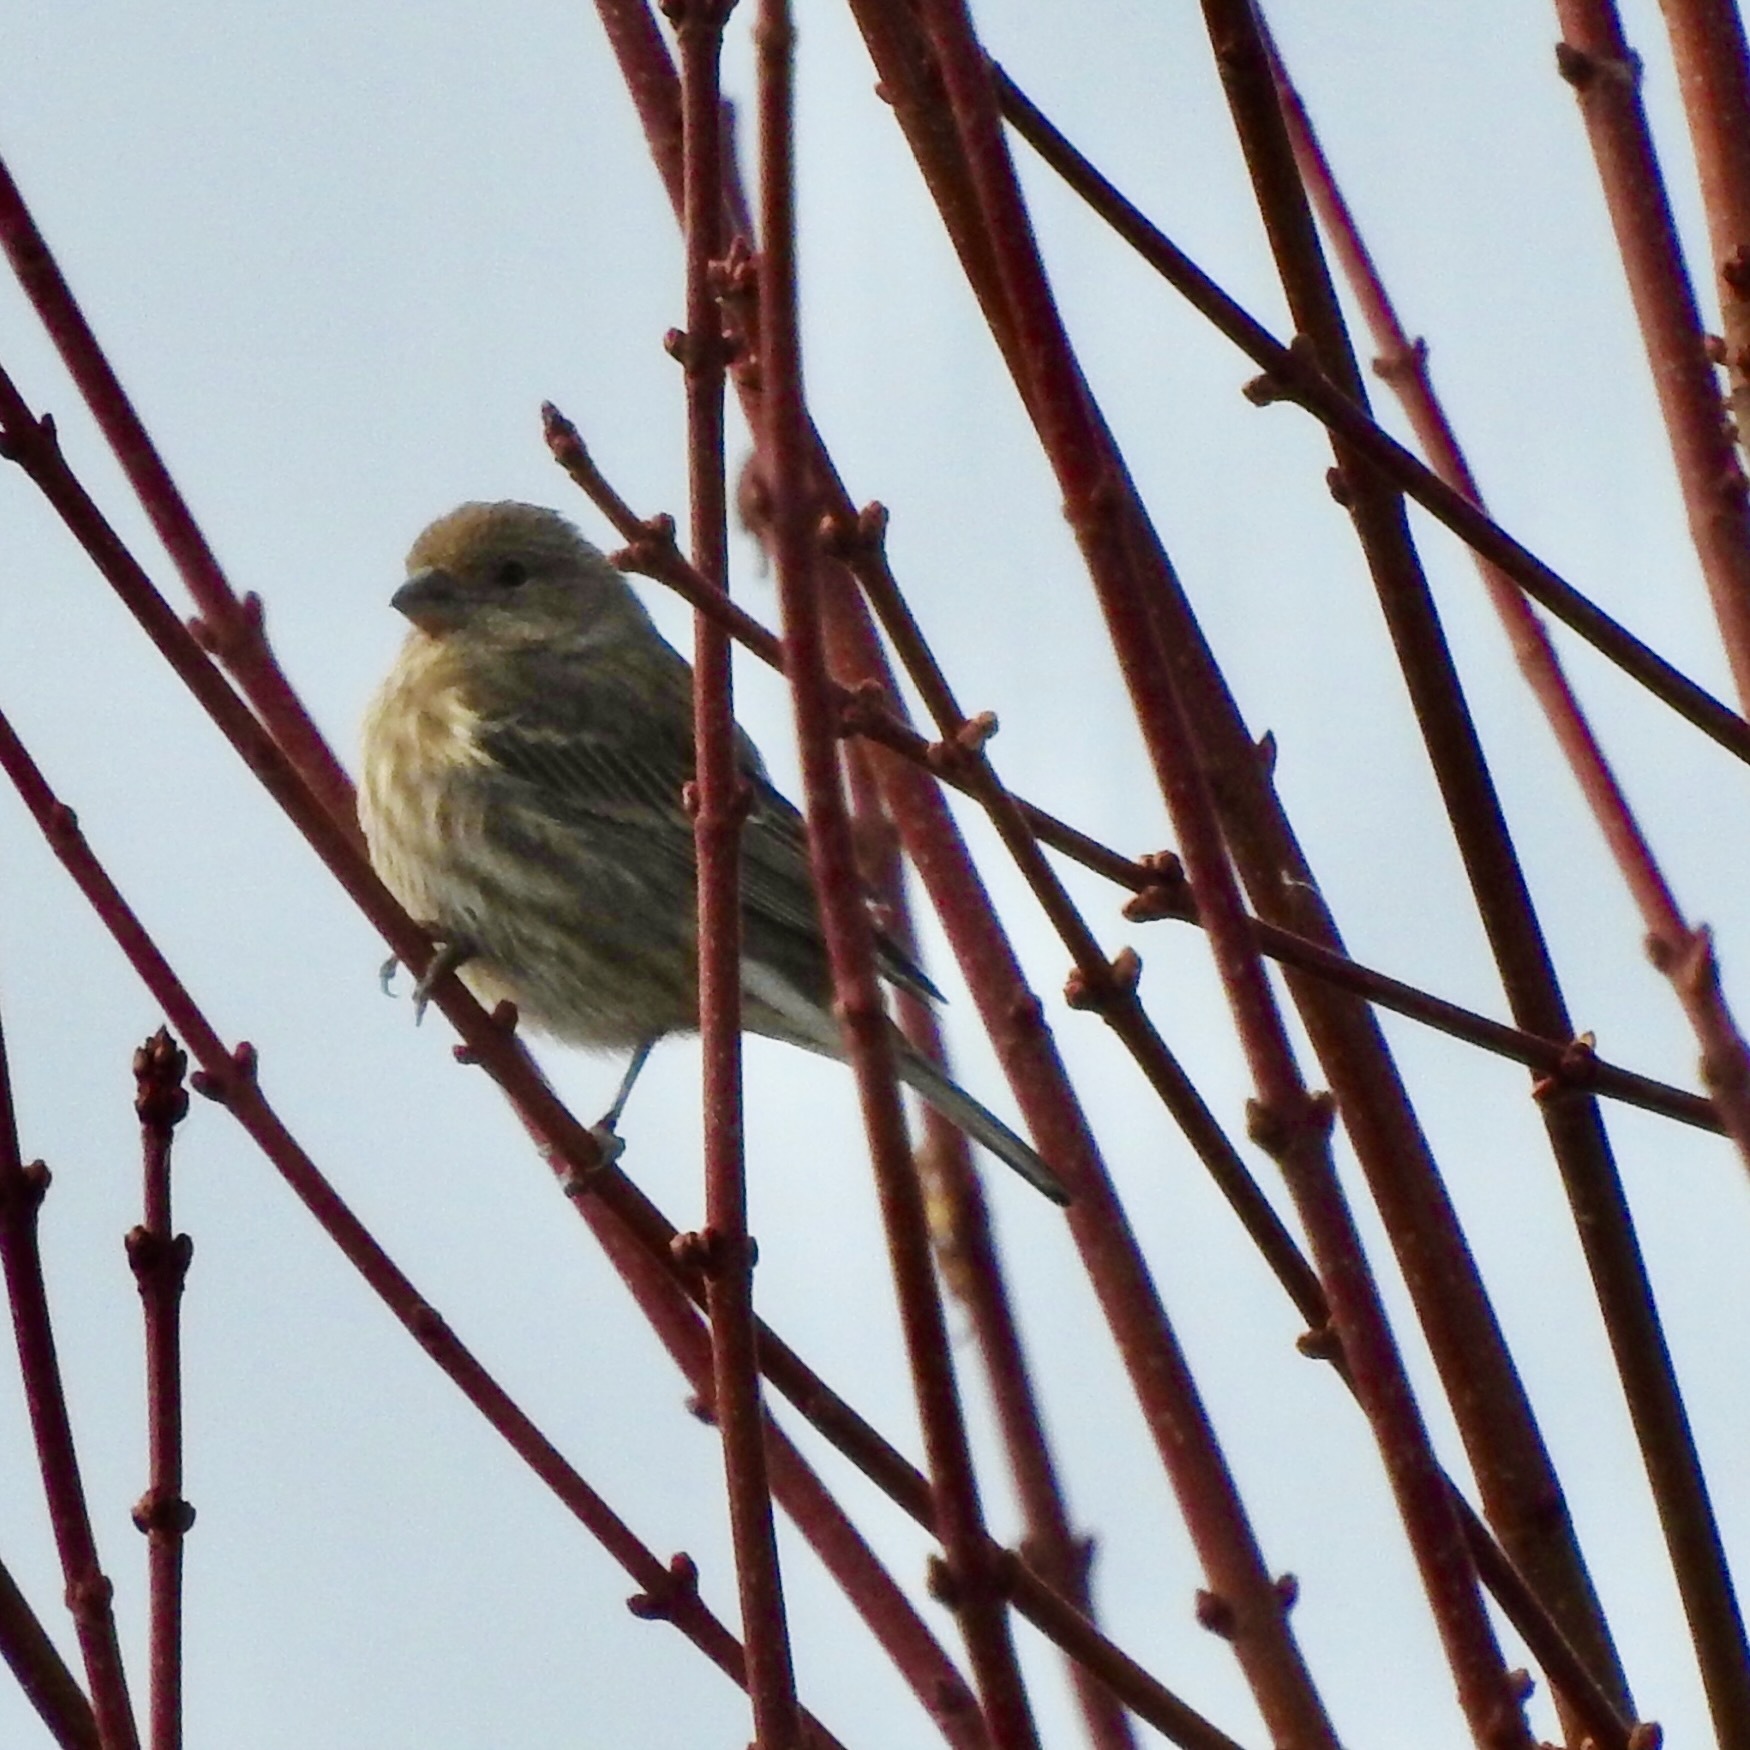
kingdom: Animalia
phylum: Chordata
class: Aves
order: Passeriformes
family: Fringillidae
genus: Haemorhous
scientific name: Haemorhous mexicanus
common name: House finch
